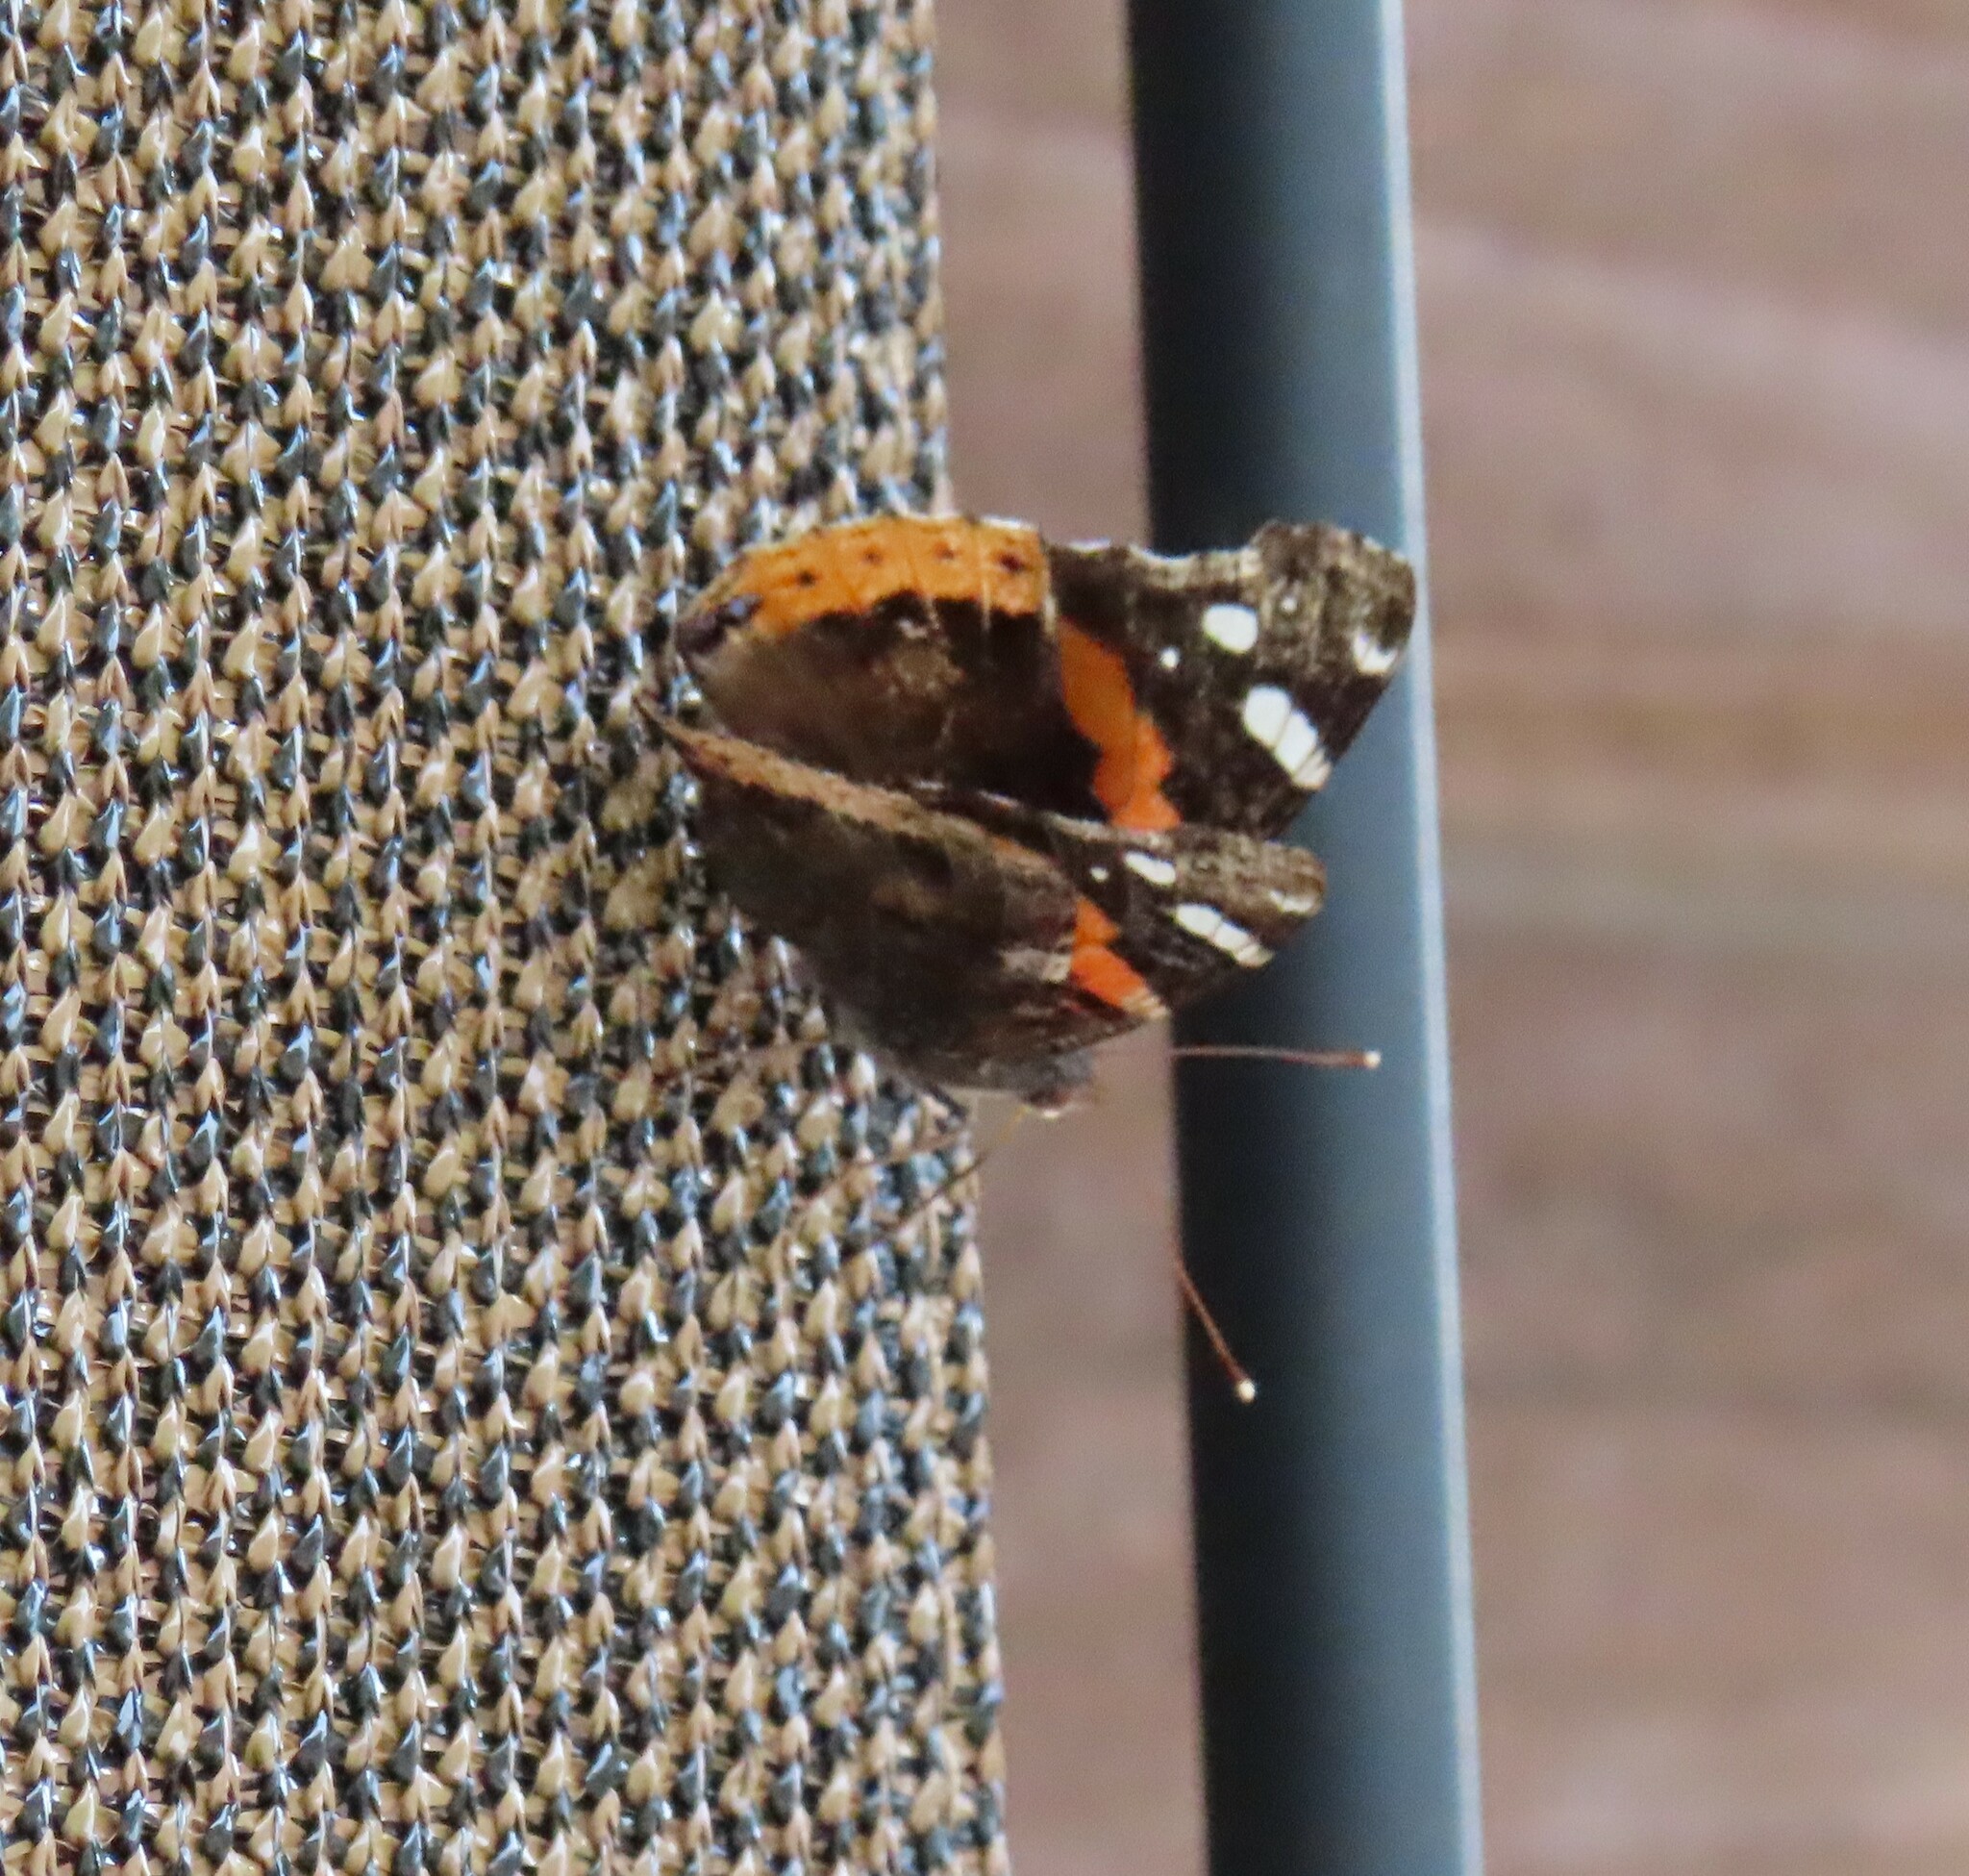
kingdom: Animalia
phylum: Arthropoda
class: Insecta
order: Lepidoptera
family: Nymphalidae
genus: Vanessa
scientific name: Vanessa atalanta
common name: Red admiral
